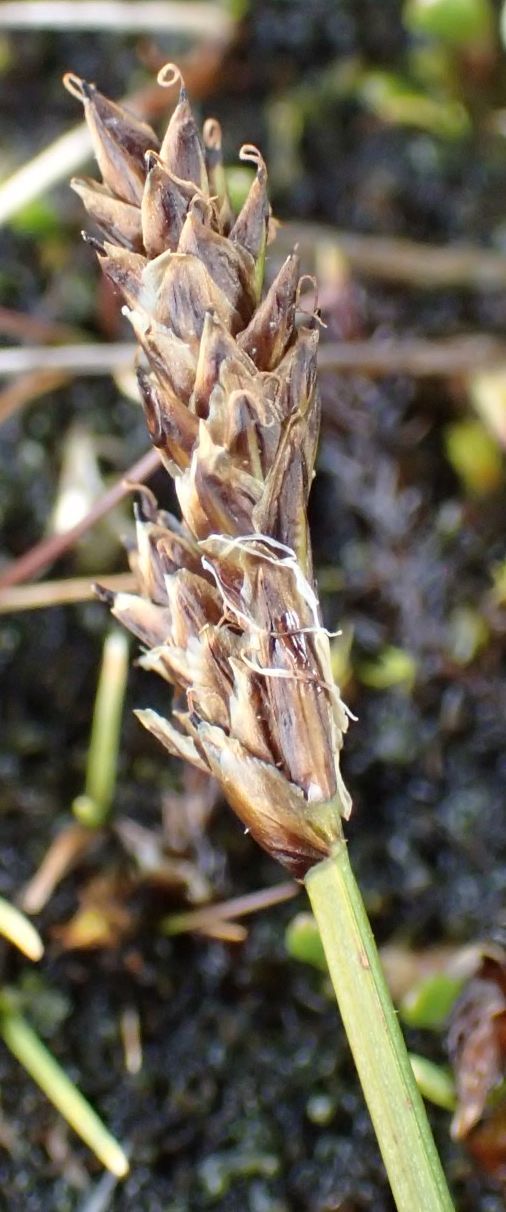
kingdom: Plantae
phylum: Tracheophyta
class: Liliopsida
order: Poales
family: Cyperaceae
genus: Carex
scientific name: Carex edura
